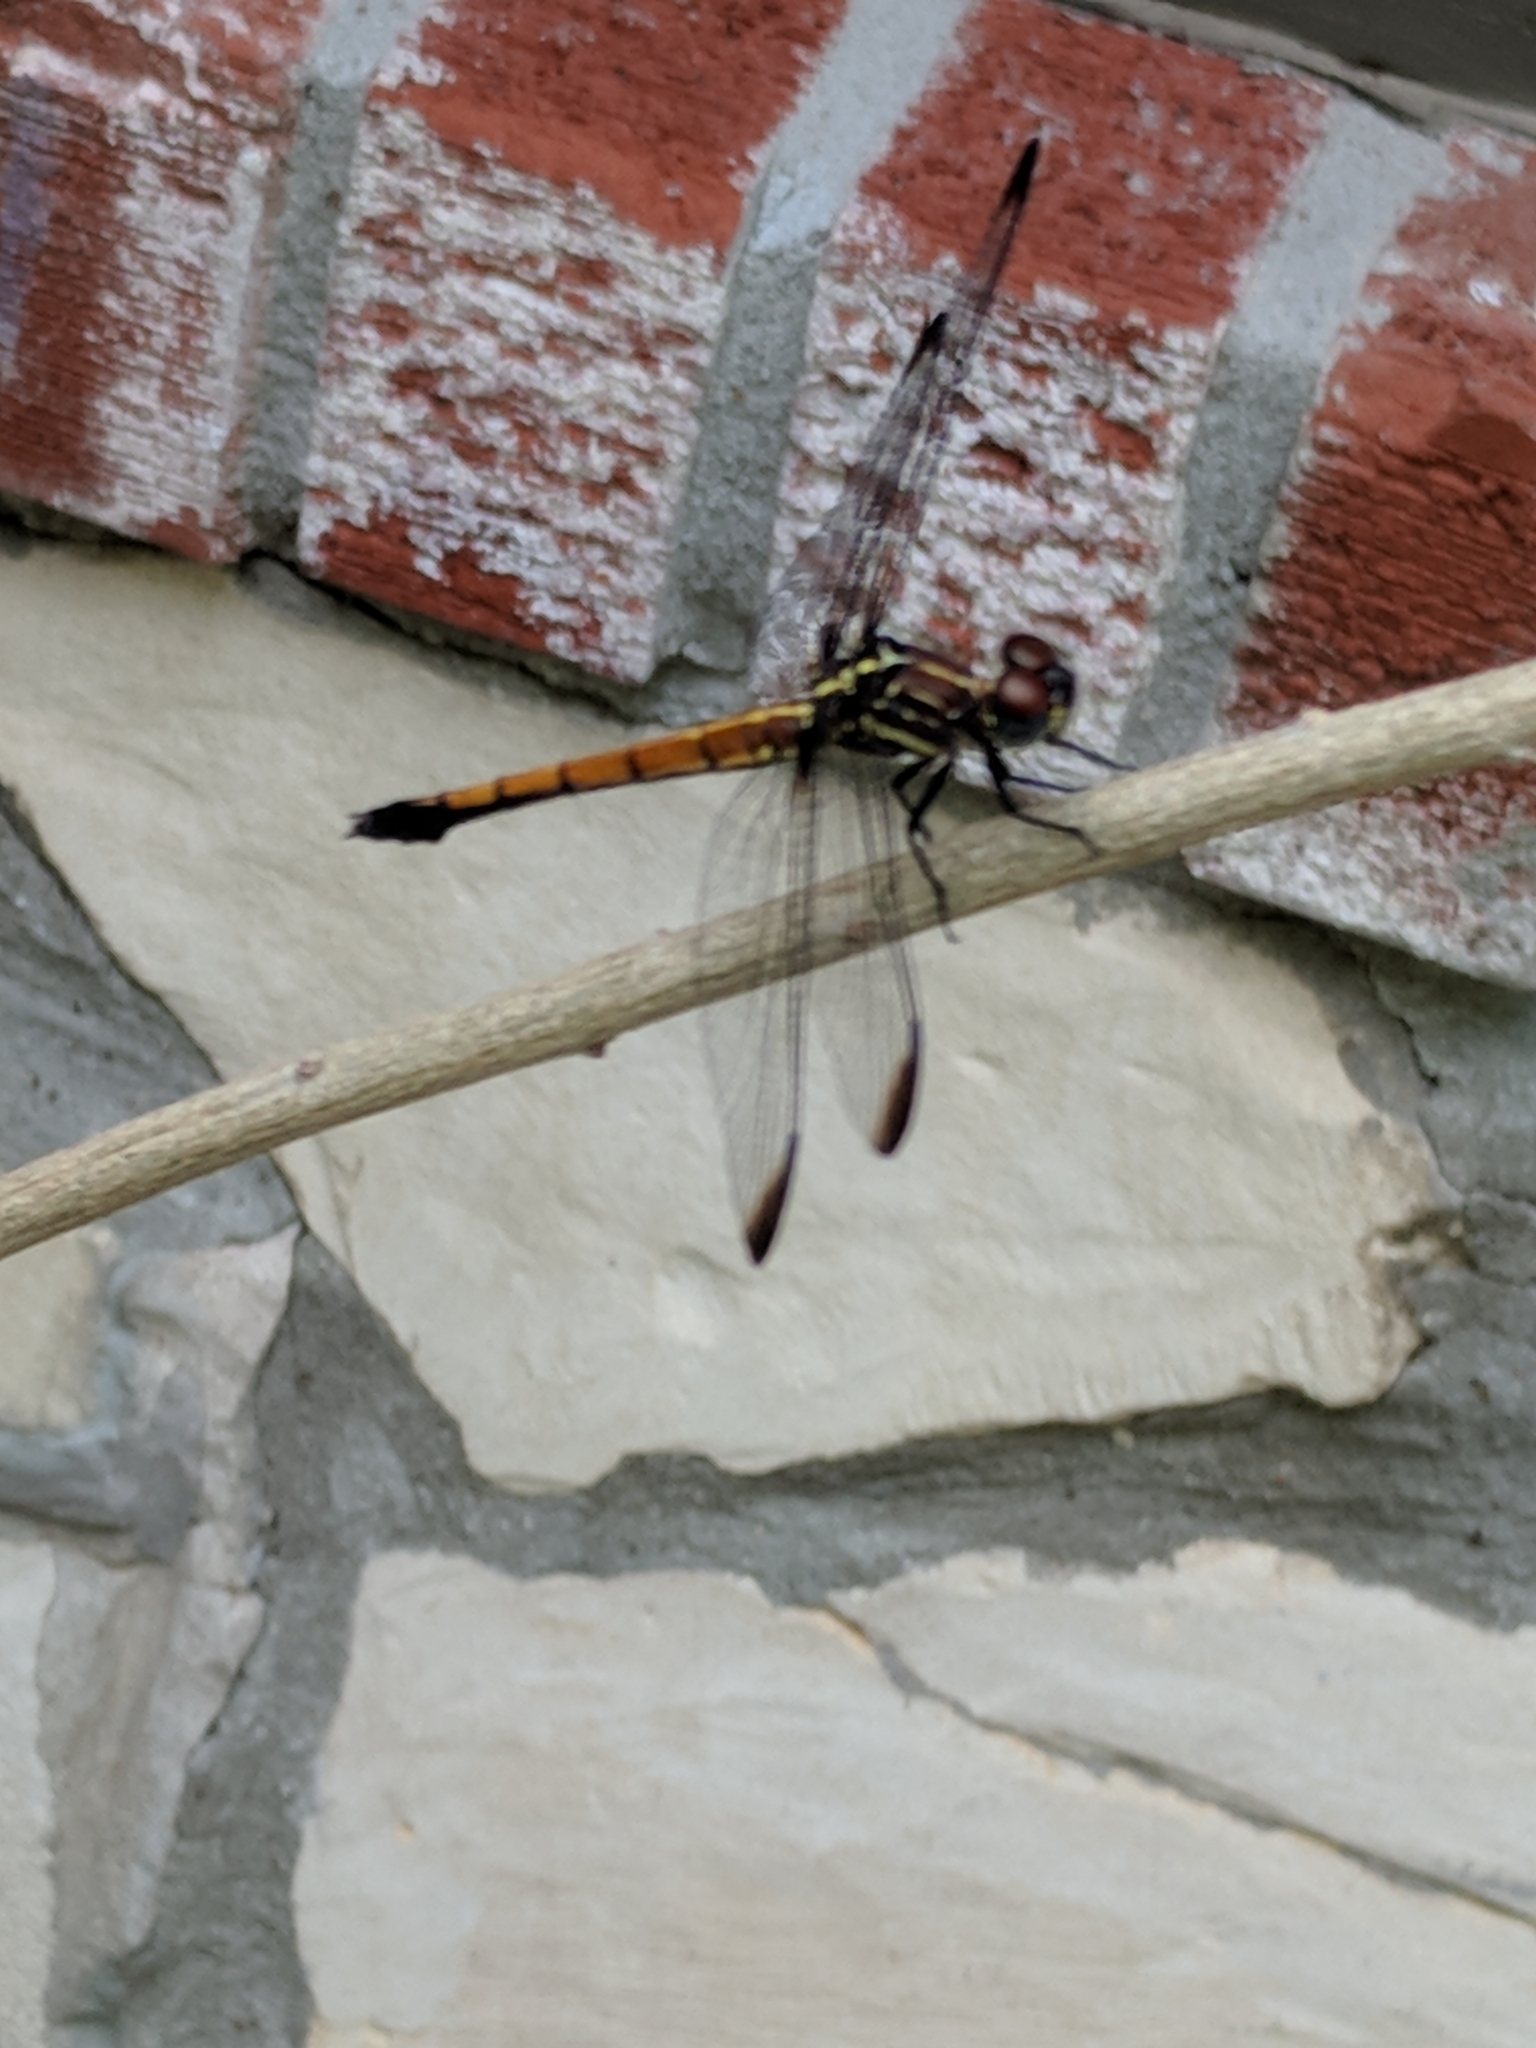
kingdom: Animalia
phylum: Arthropoda
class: Insecta
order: Odonata
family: Libellulidae
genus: Cannaphila
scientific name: Cannaphila insularis
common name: Gray-waisted skimmer
